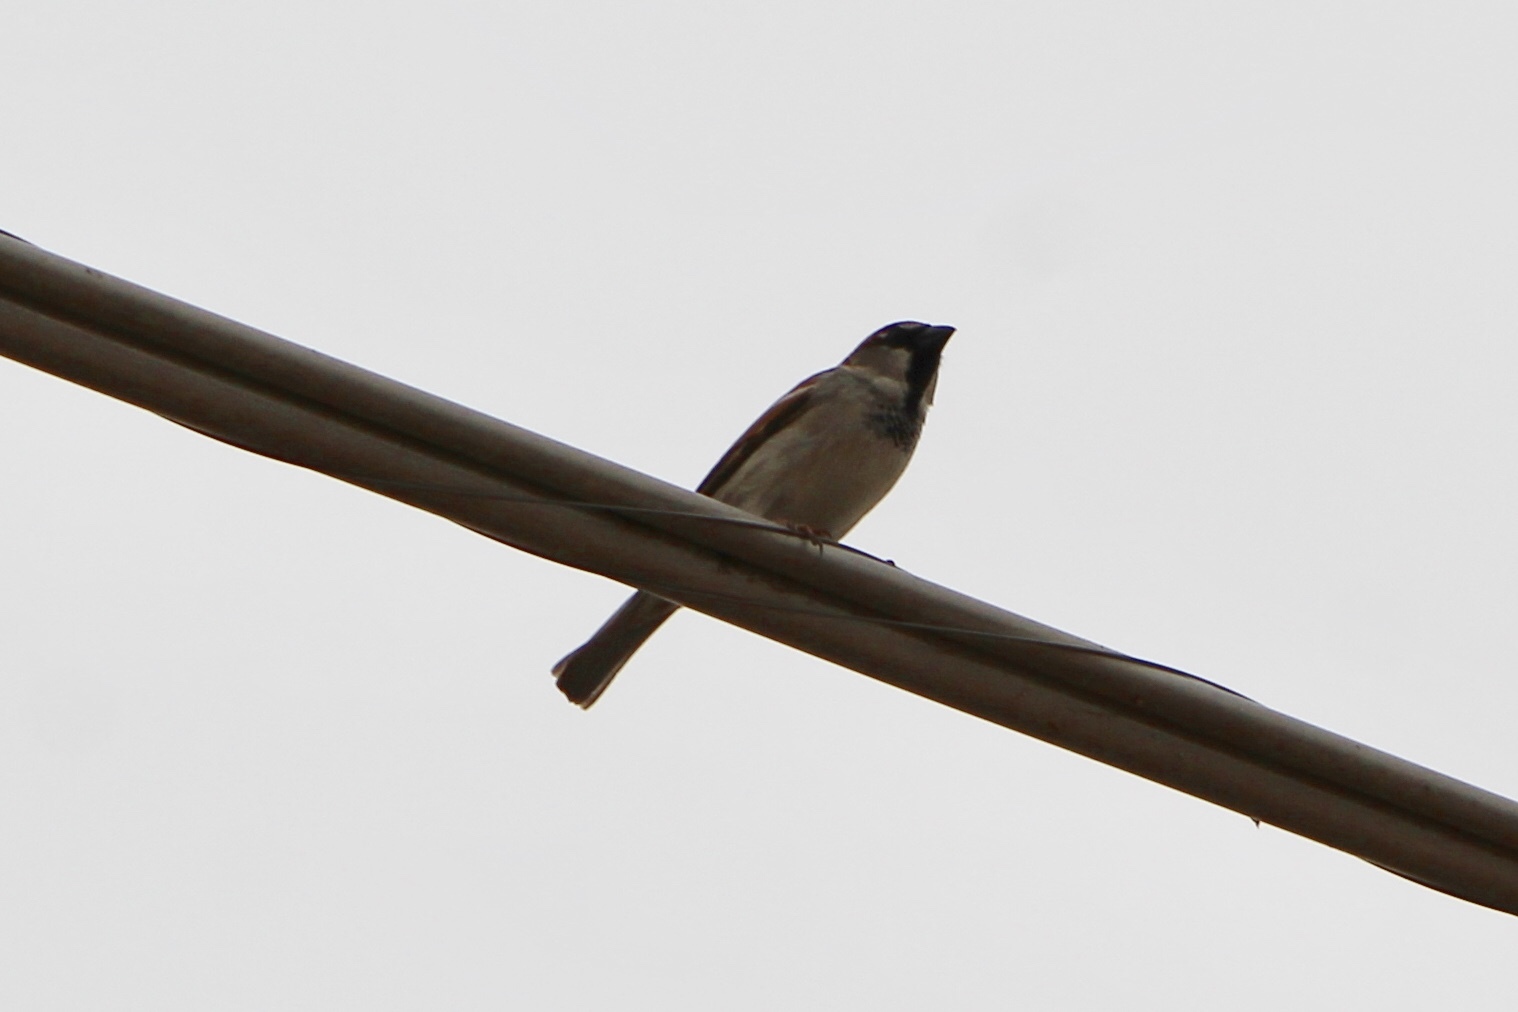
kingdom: Animalia
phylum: Chordata
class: Aves
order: Passeriformes
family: Passeridae
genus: Passer
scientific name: Passer domesticus
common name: House sparrow
